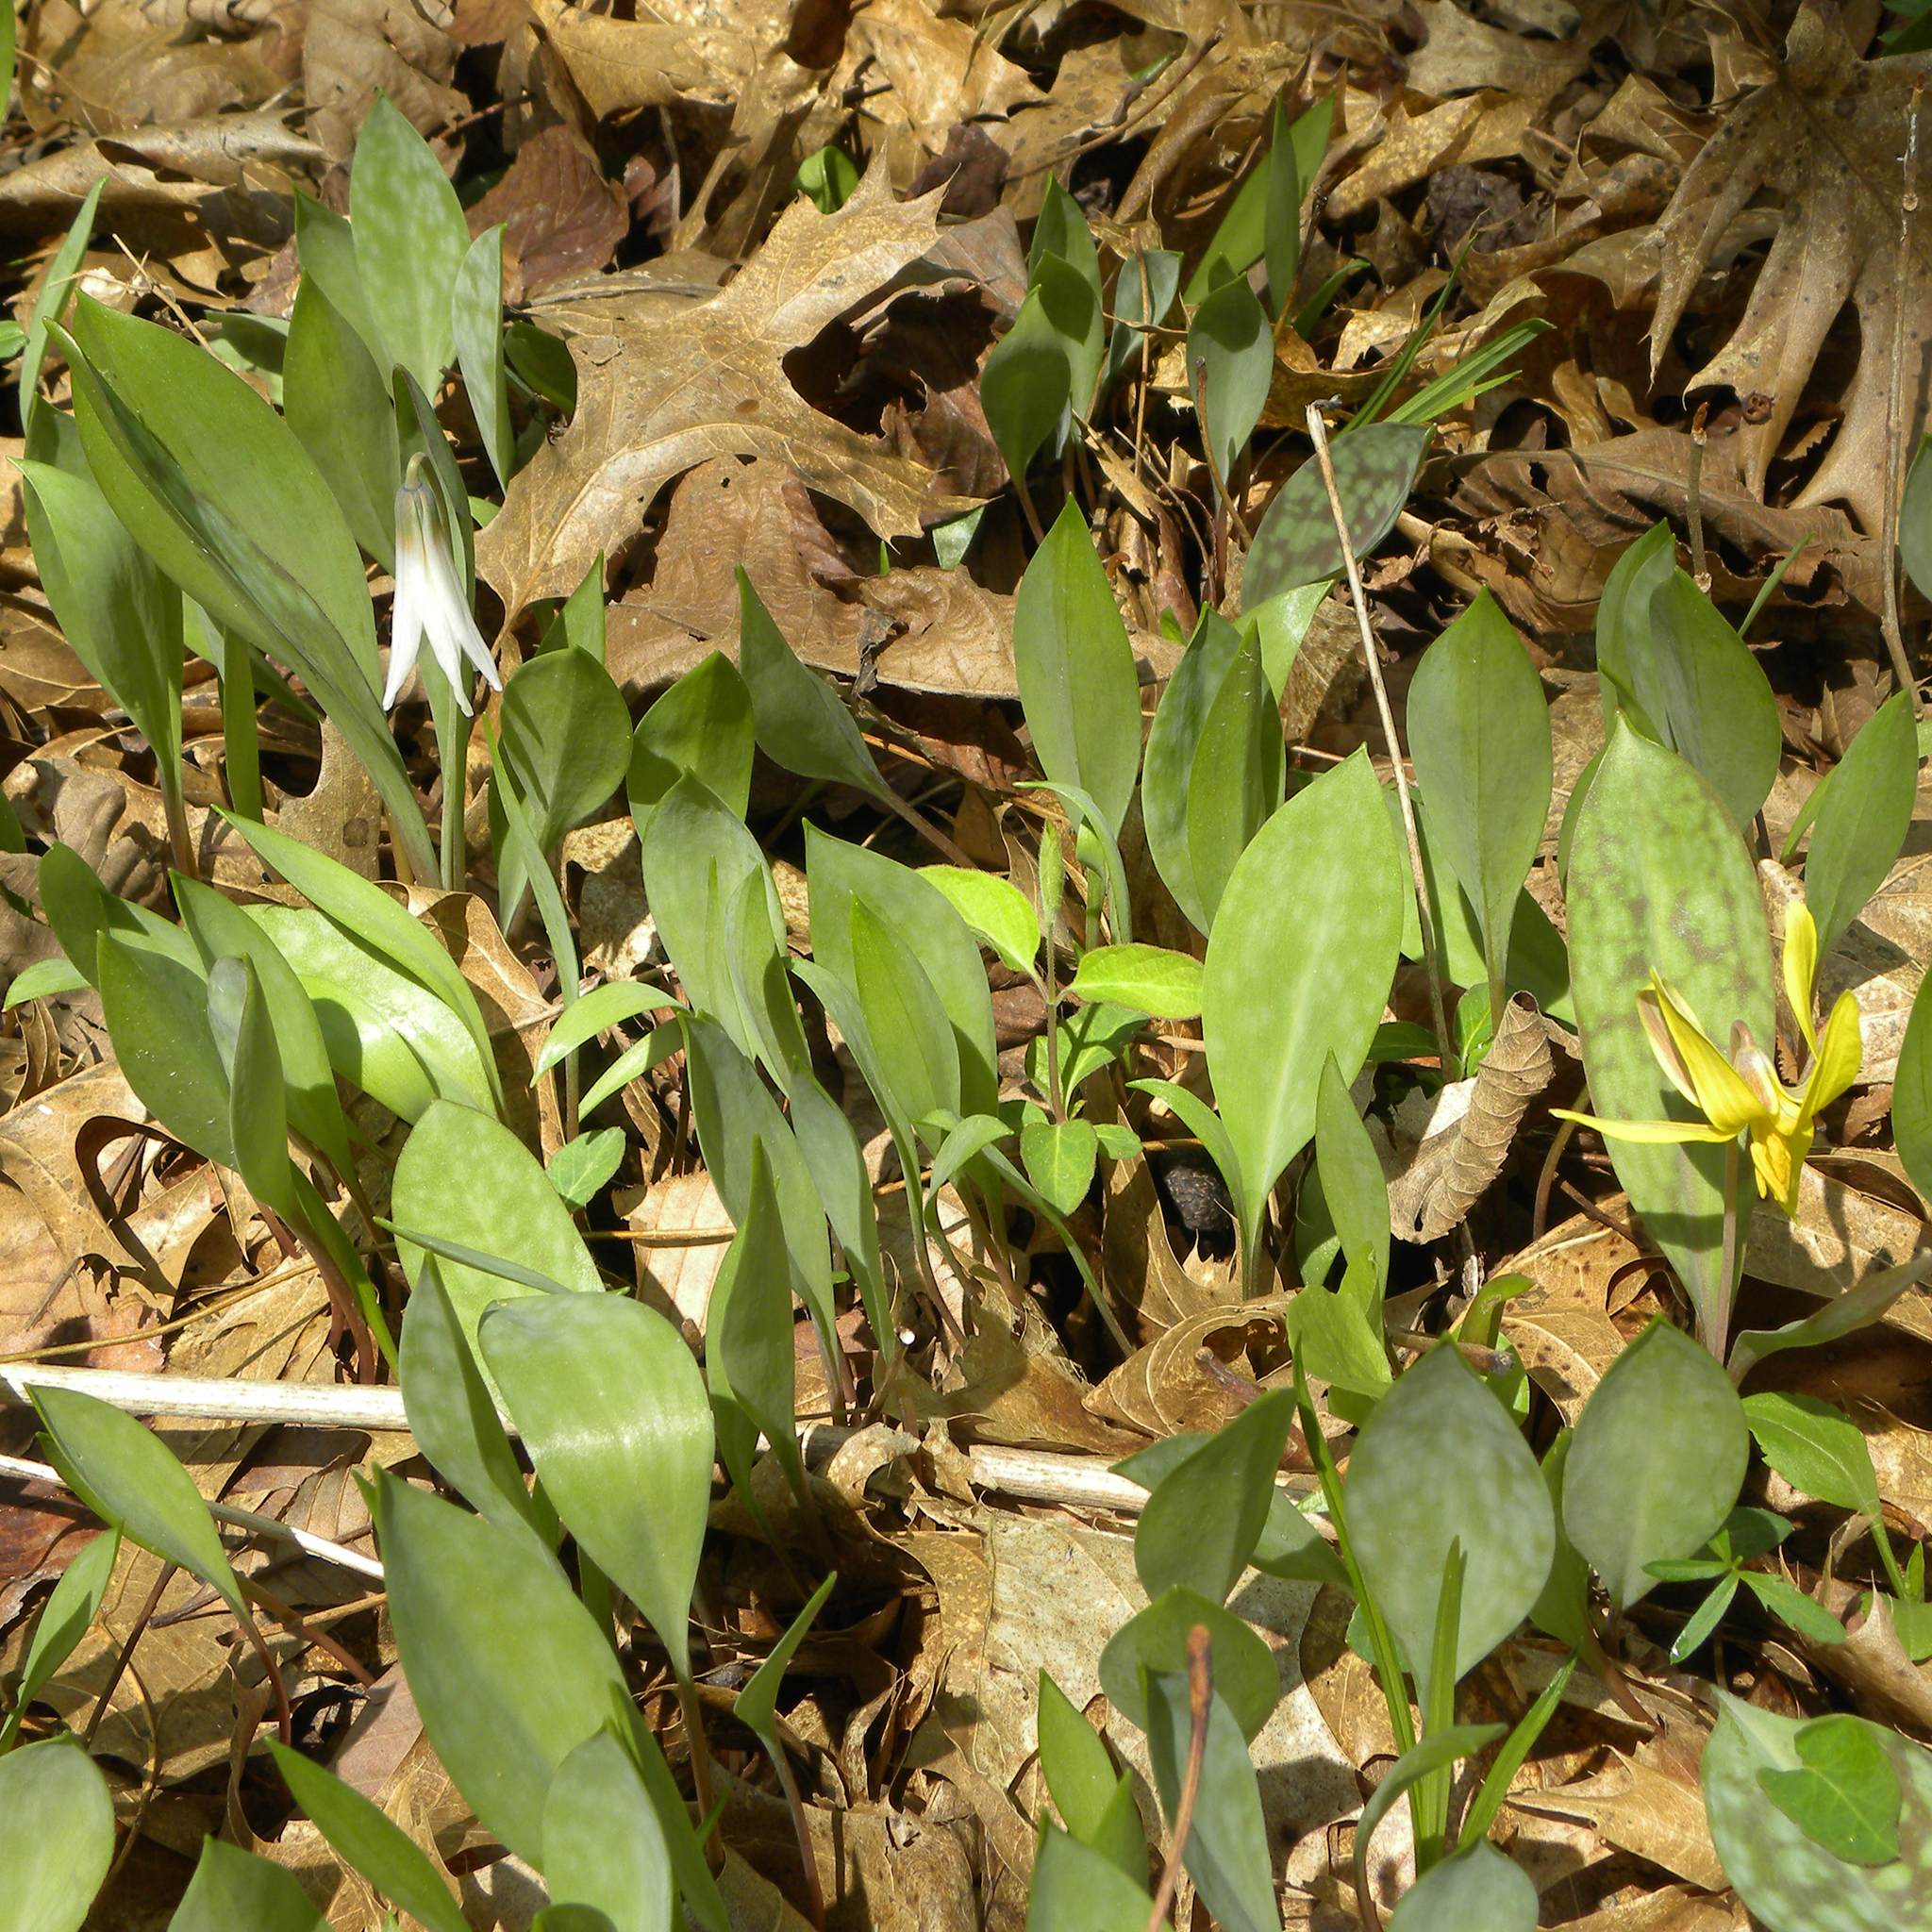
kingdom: Plantae
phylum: Tracheophyta
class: Liliopsida
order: Liliales
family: Liliaceae
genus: Erythronium
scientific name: Erythronium americanum
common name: Yellow adder's-tongue
